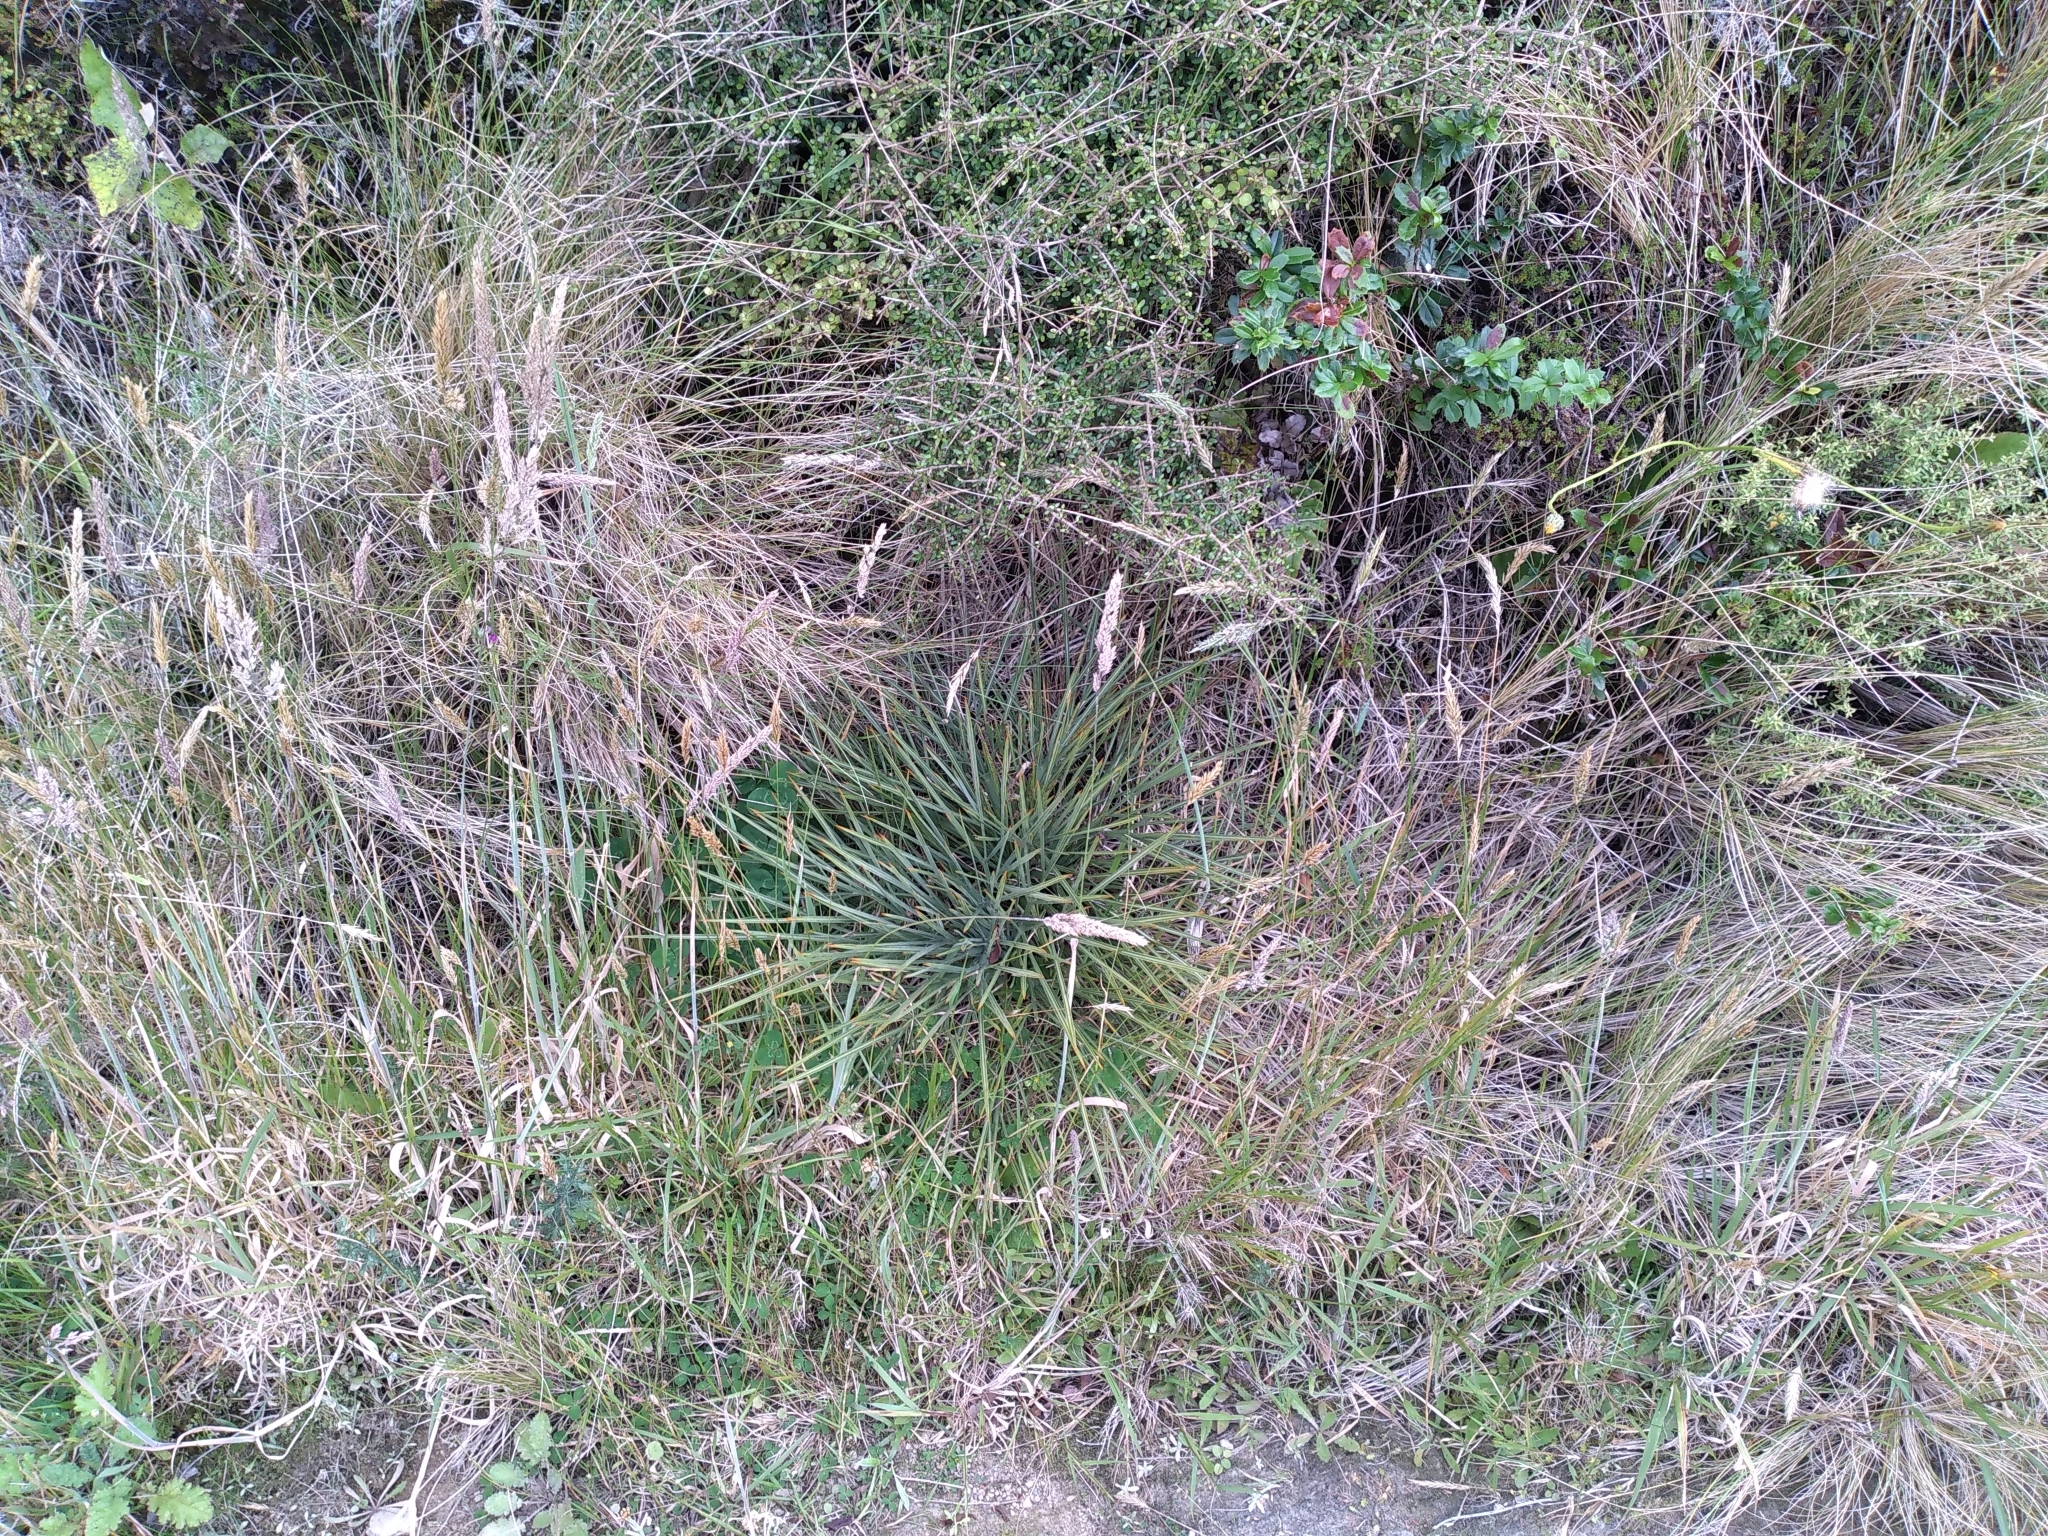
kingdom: Plantae
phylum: Tracheophyta
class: Magnoliopsida
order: Apiales
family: Apiaceae
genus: Aciphylla
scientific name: Aciphylla squarrosa
